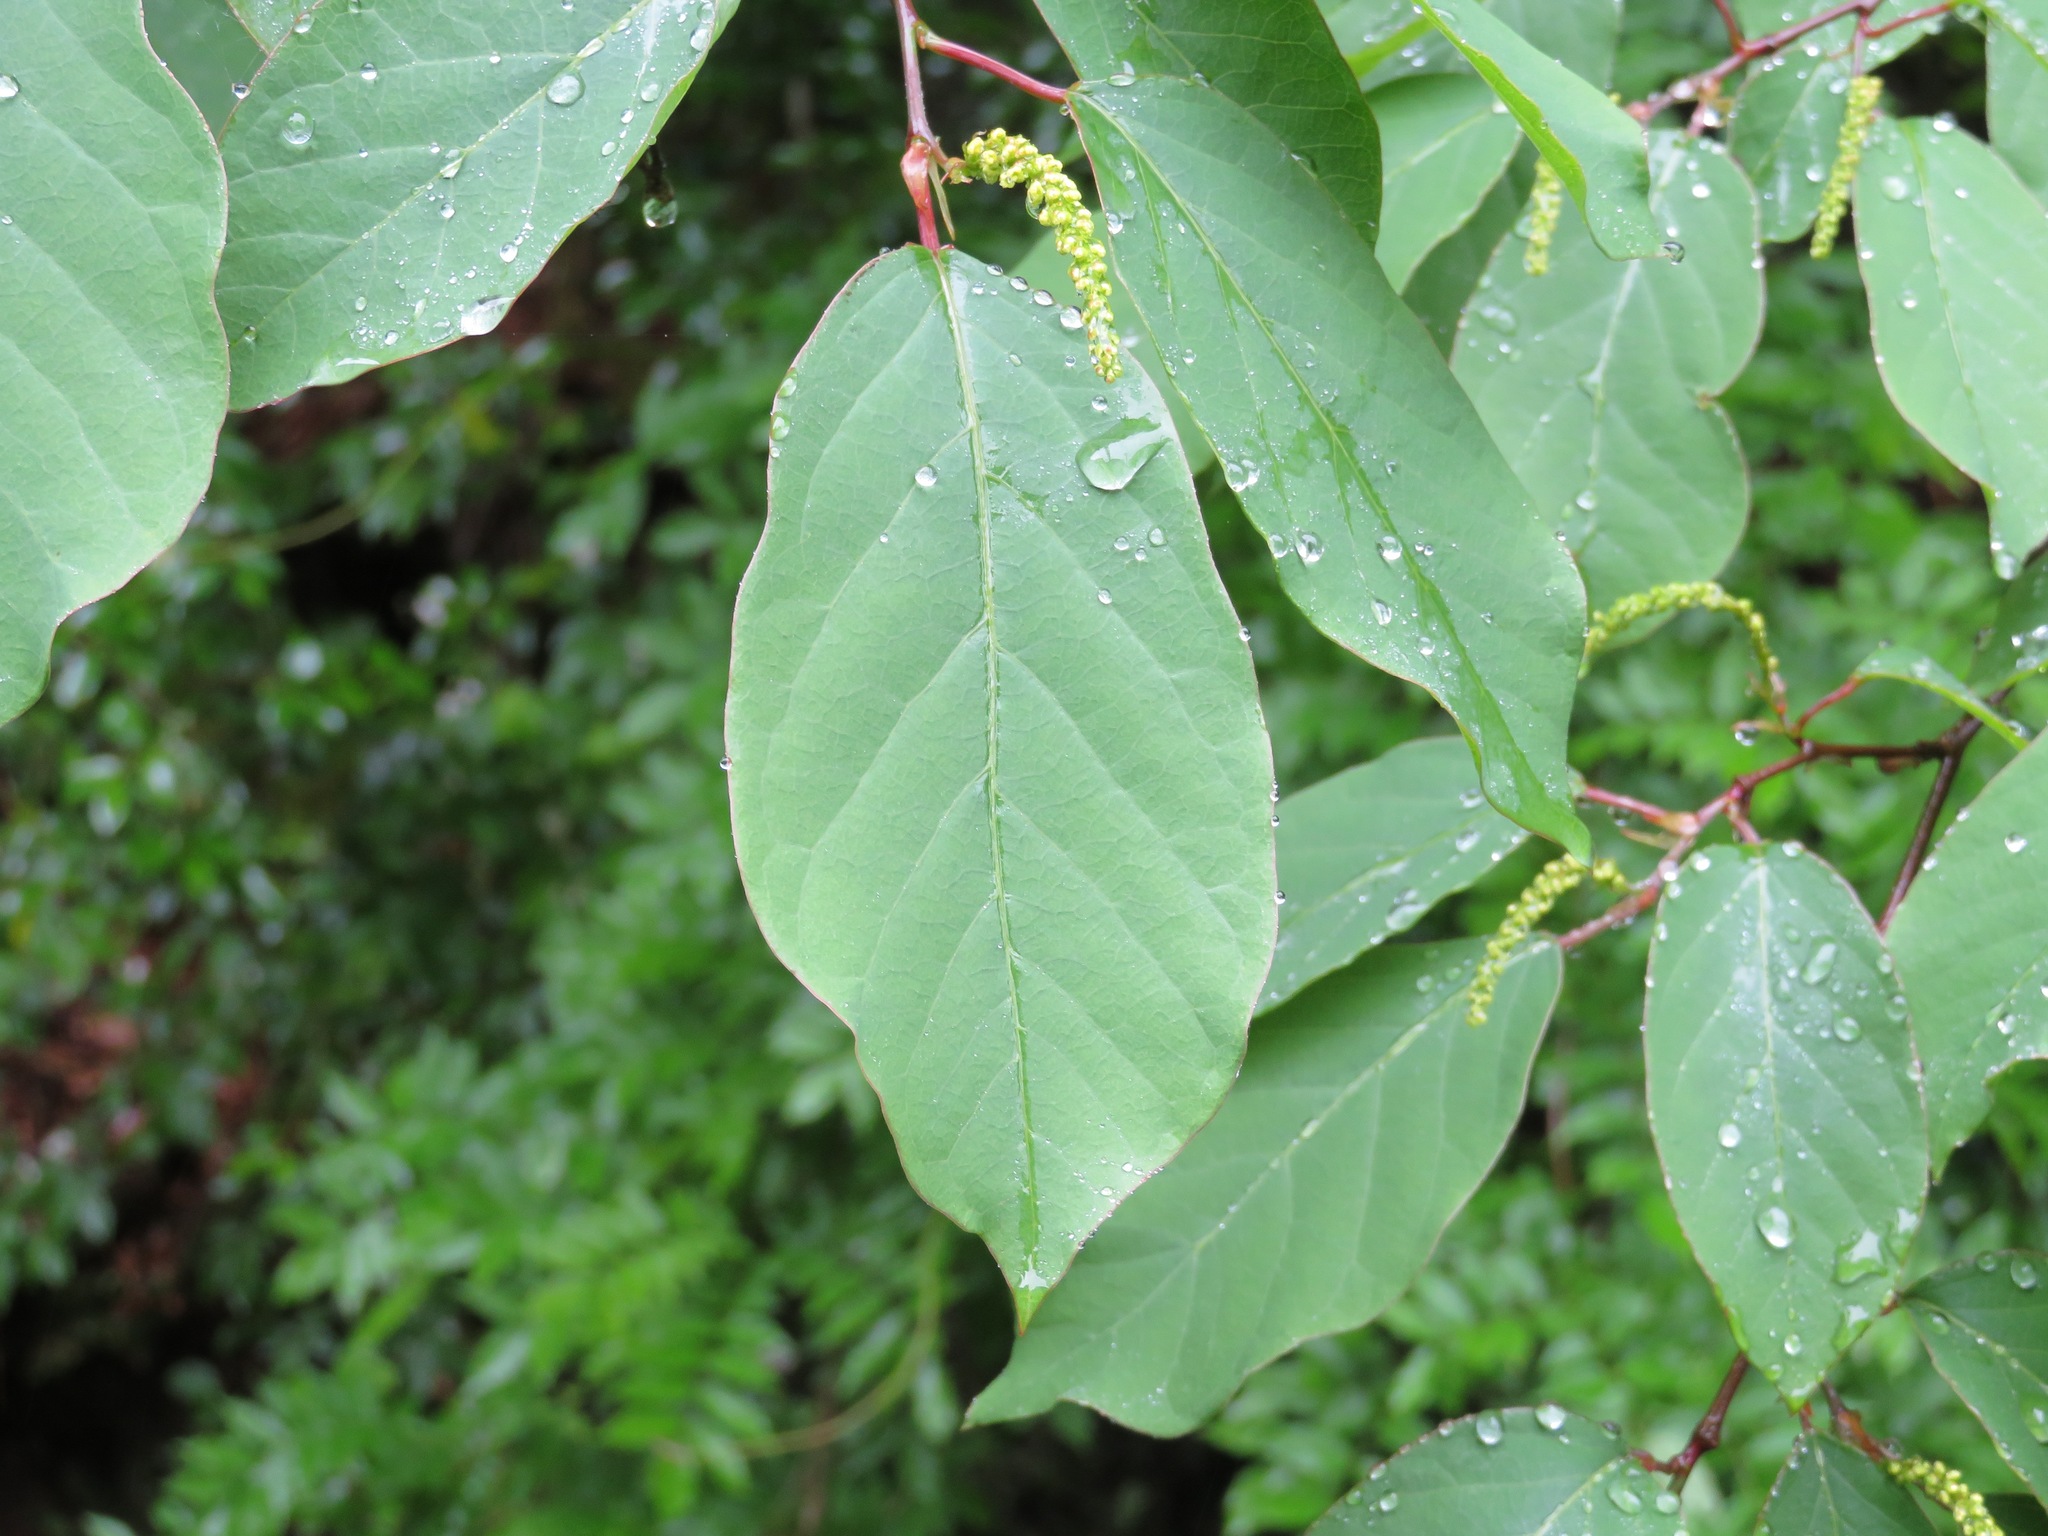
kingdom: Plantae
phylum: Tracheophyta
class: Magnoliopsida
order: Malpighiales
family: Euphorbiaceae
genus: Neoshirakia
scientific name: Neoshirakia japonica
